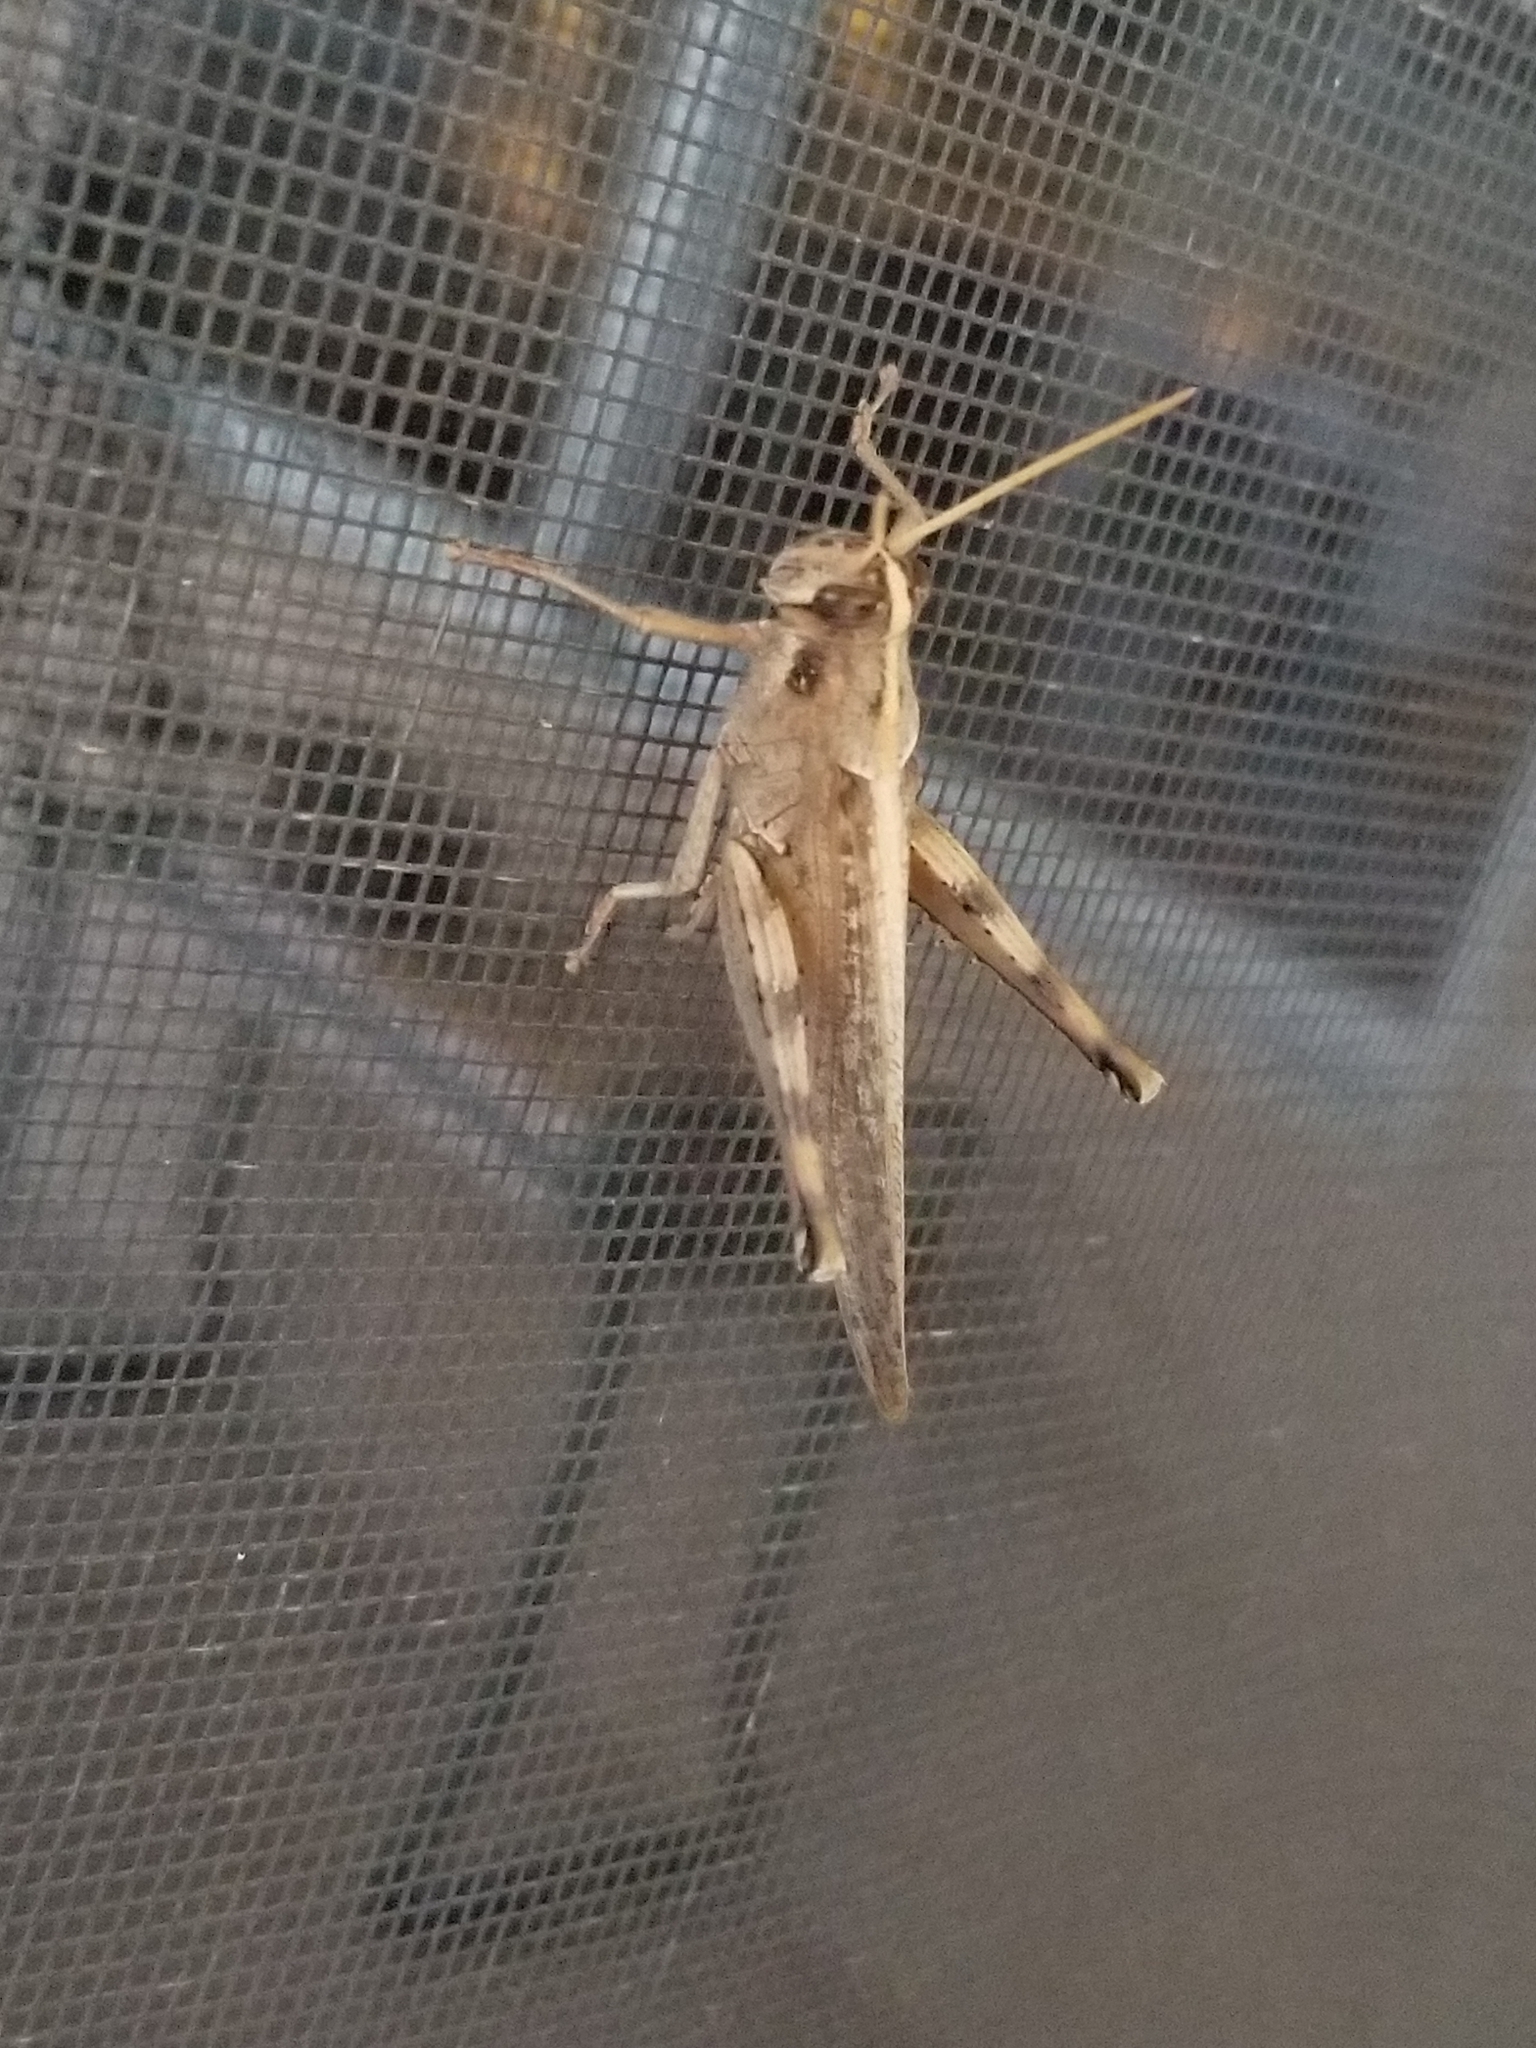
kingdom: Animalia
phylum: Arthropoda
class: Insecta
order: Orthoptera
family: Acrididae
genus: Schistocerca
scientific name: Schistocerca nitens
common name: Vagrant grasshopper
